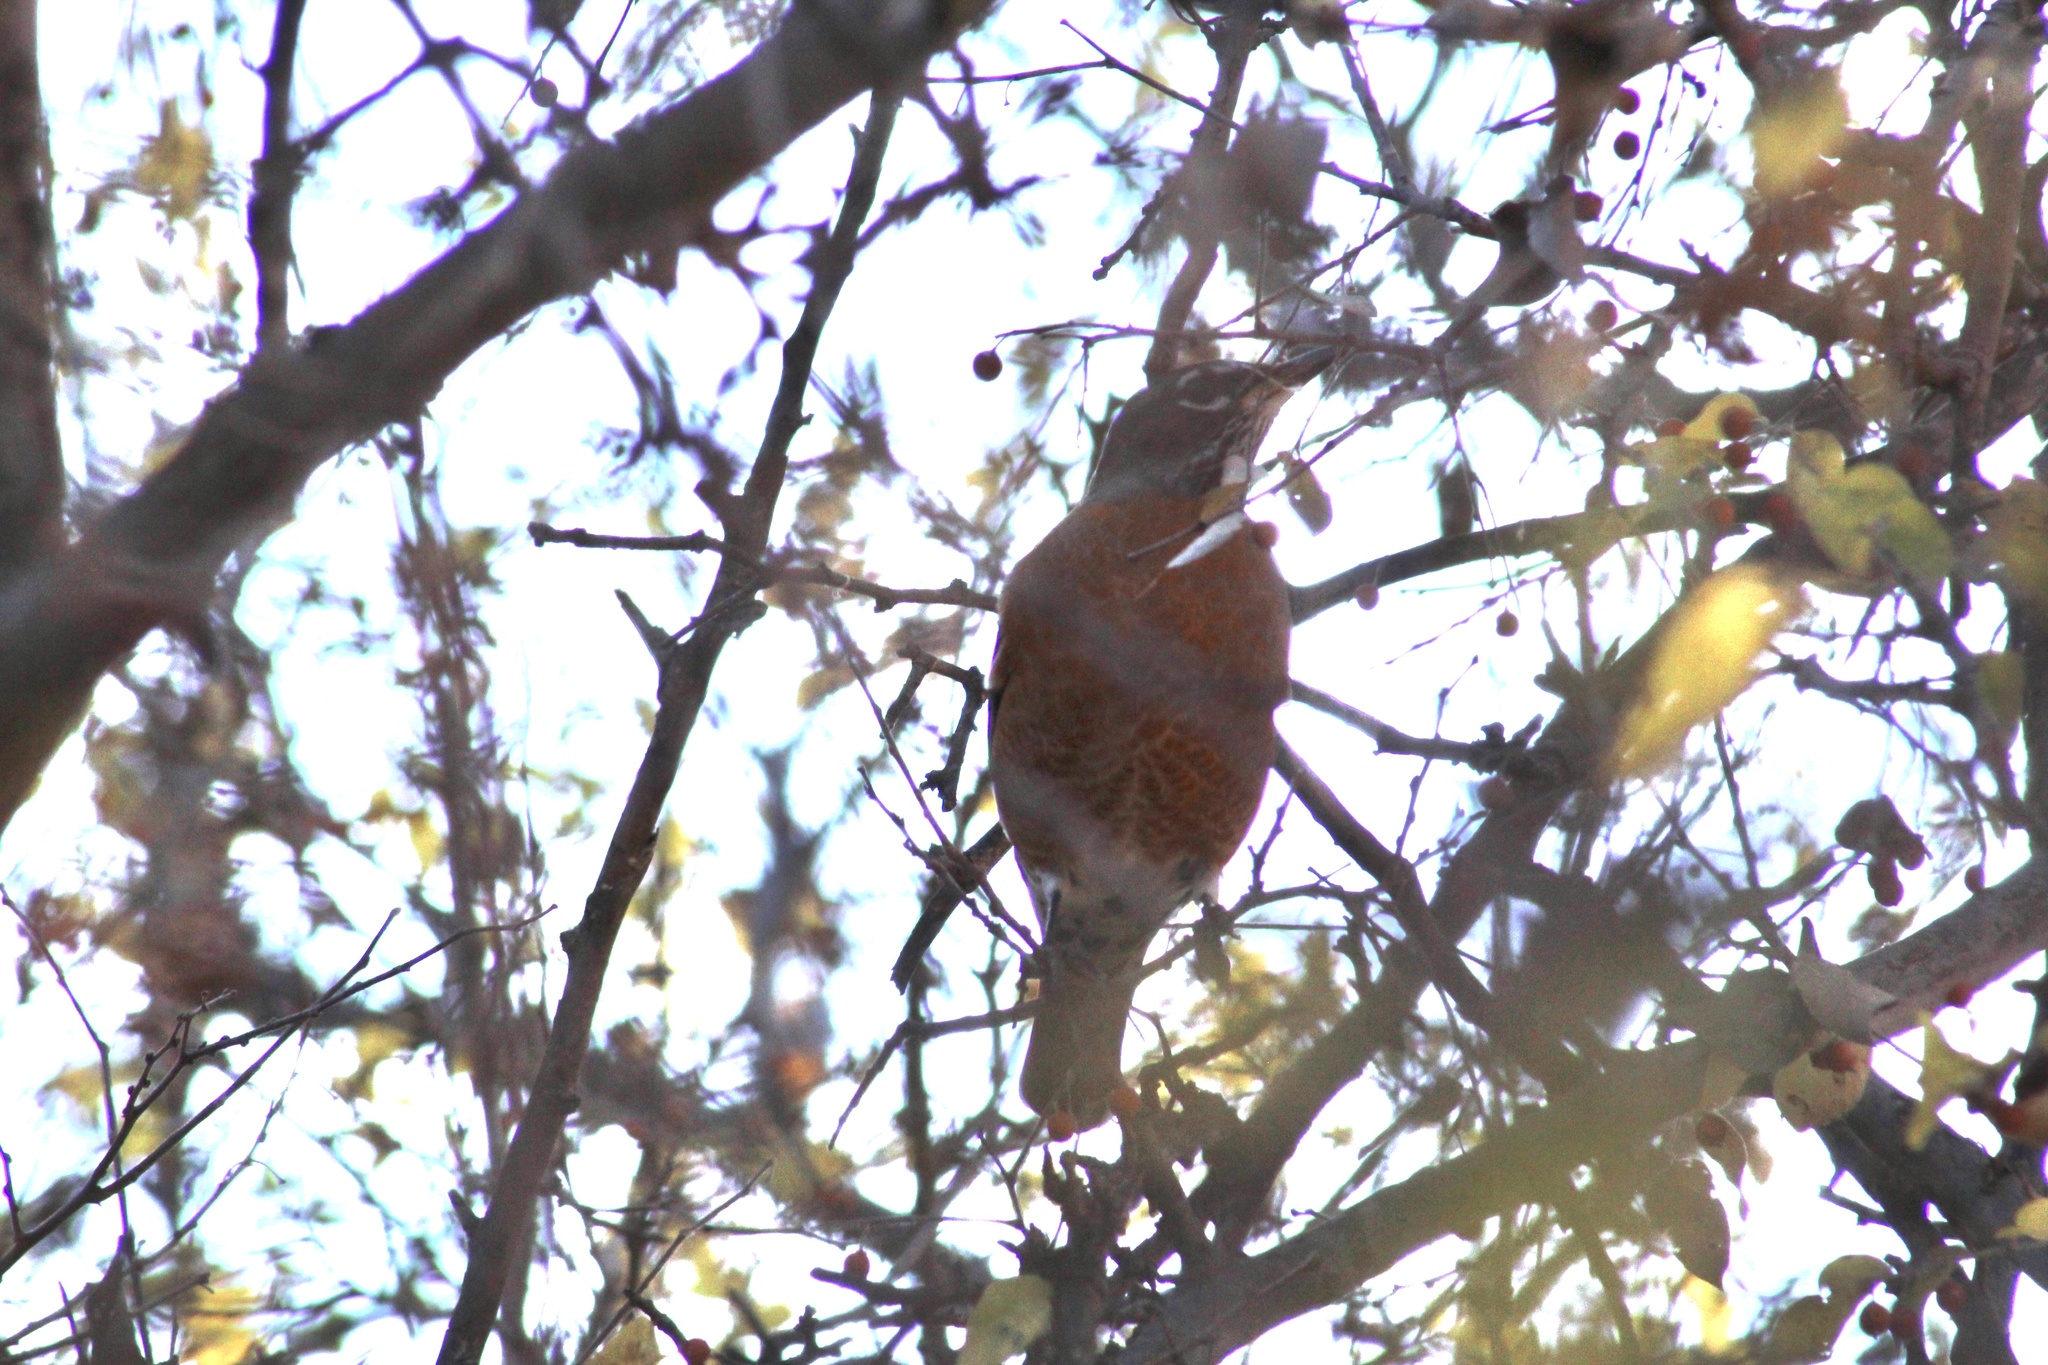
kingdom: Animalia
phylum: Chordata
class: Aves
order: Passeriformes
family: Turdidae
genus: Turdus
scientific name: Turdus migratorius
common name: American robin
